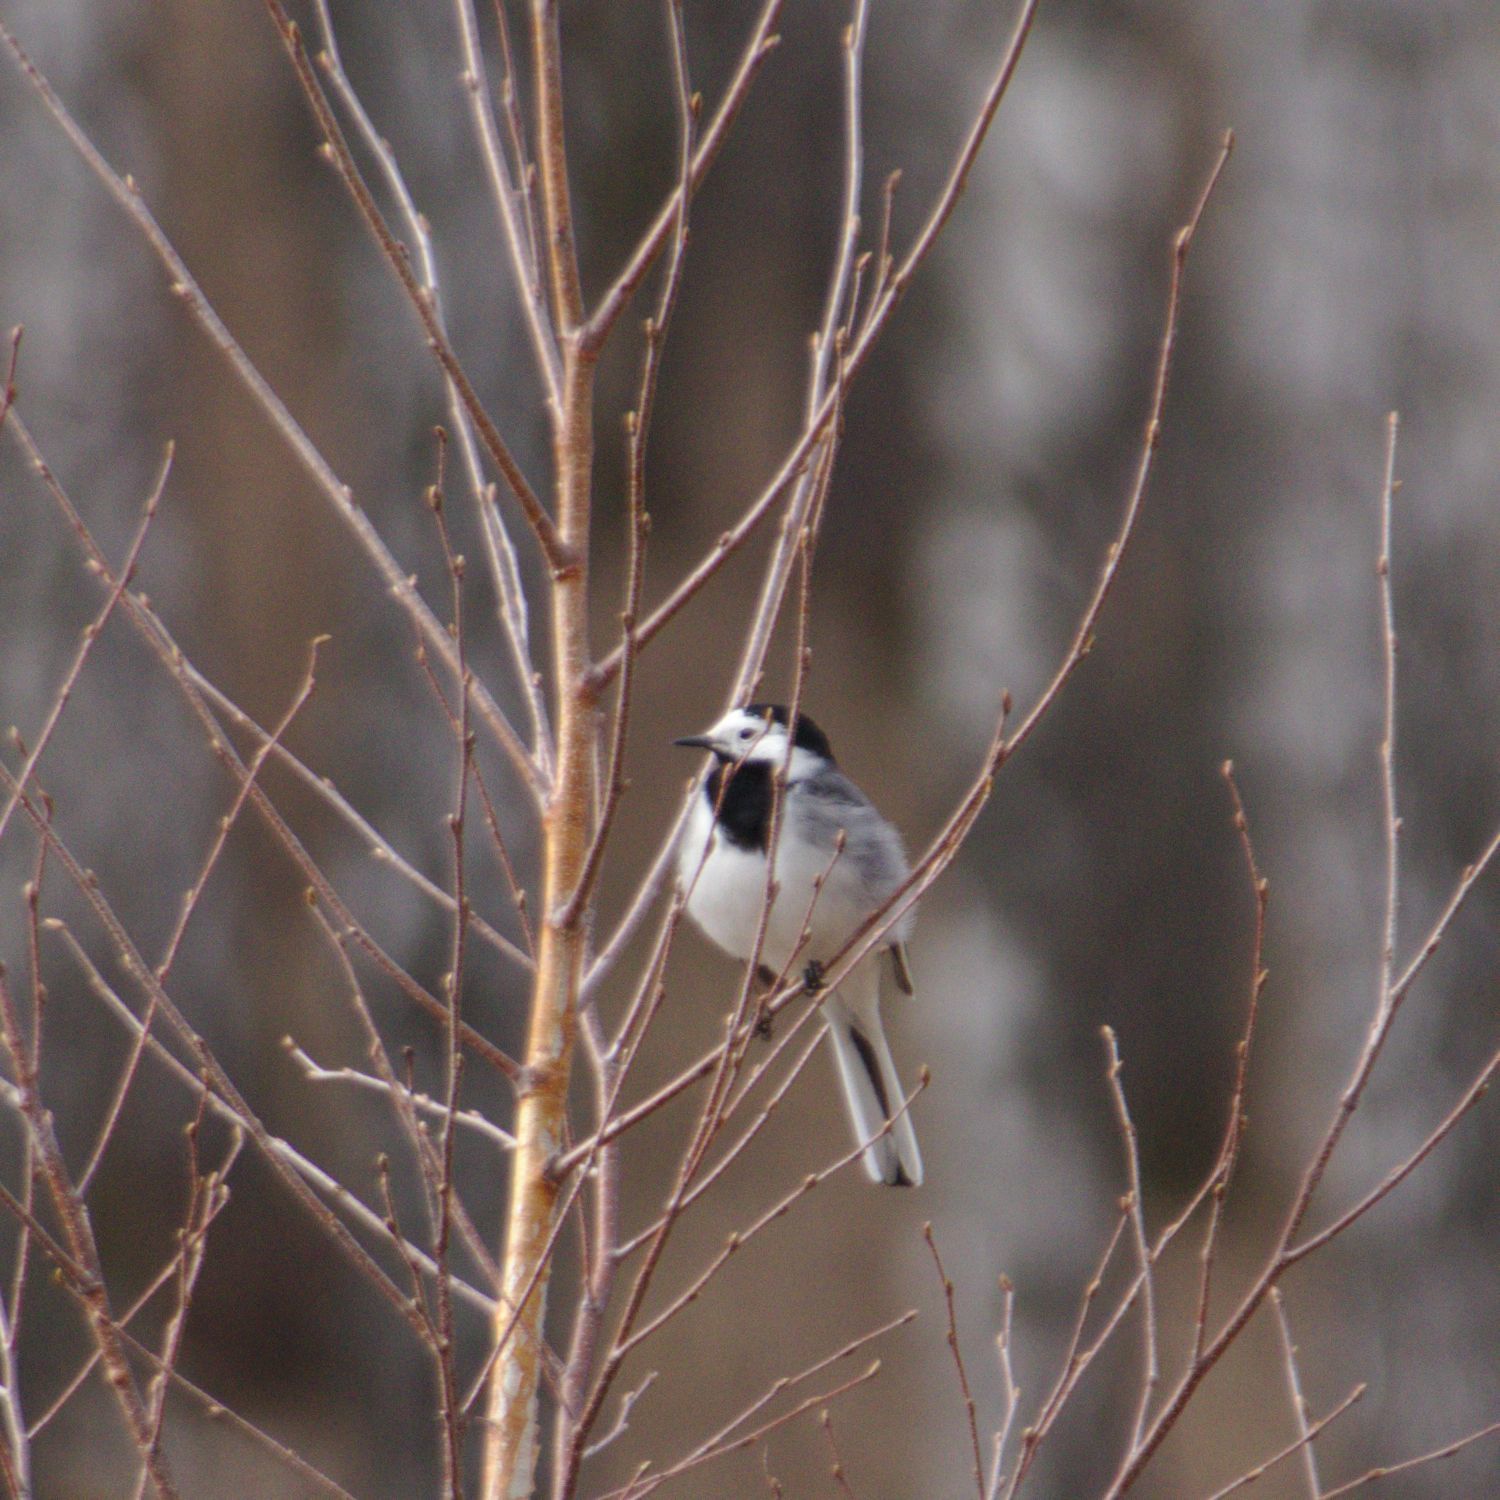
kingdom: Animalia
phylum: Chordata
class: Aves
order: Passeriformes
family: Motacillidae
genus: Motacilla
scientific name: Motacilla alba
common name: White wagtail
